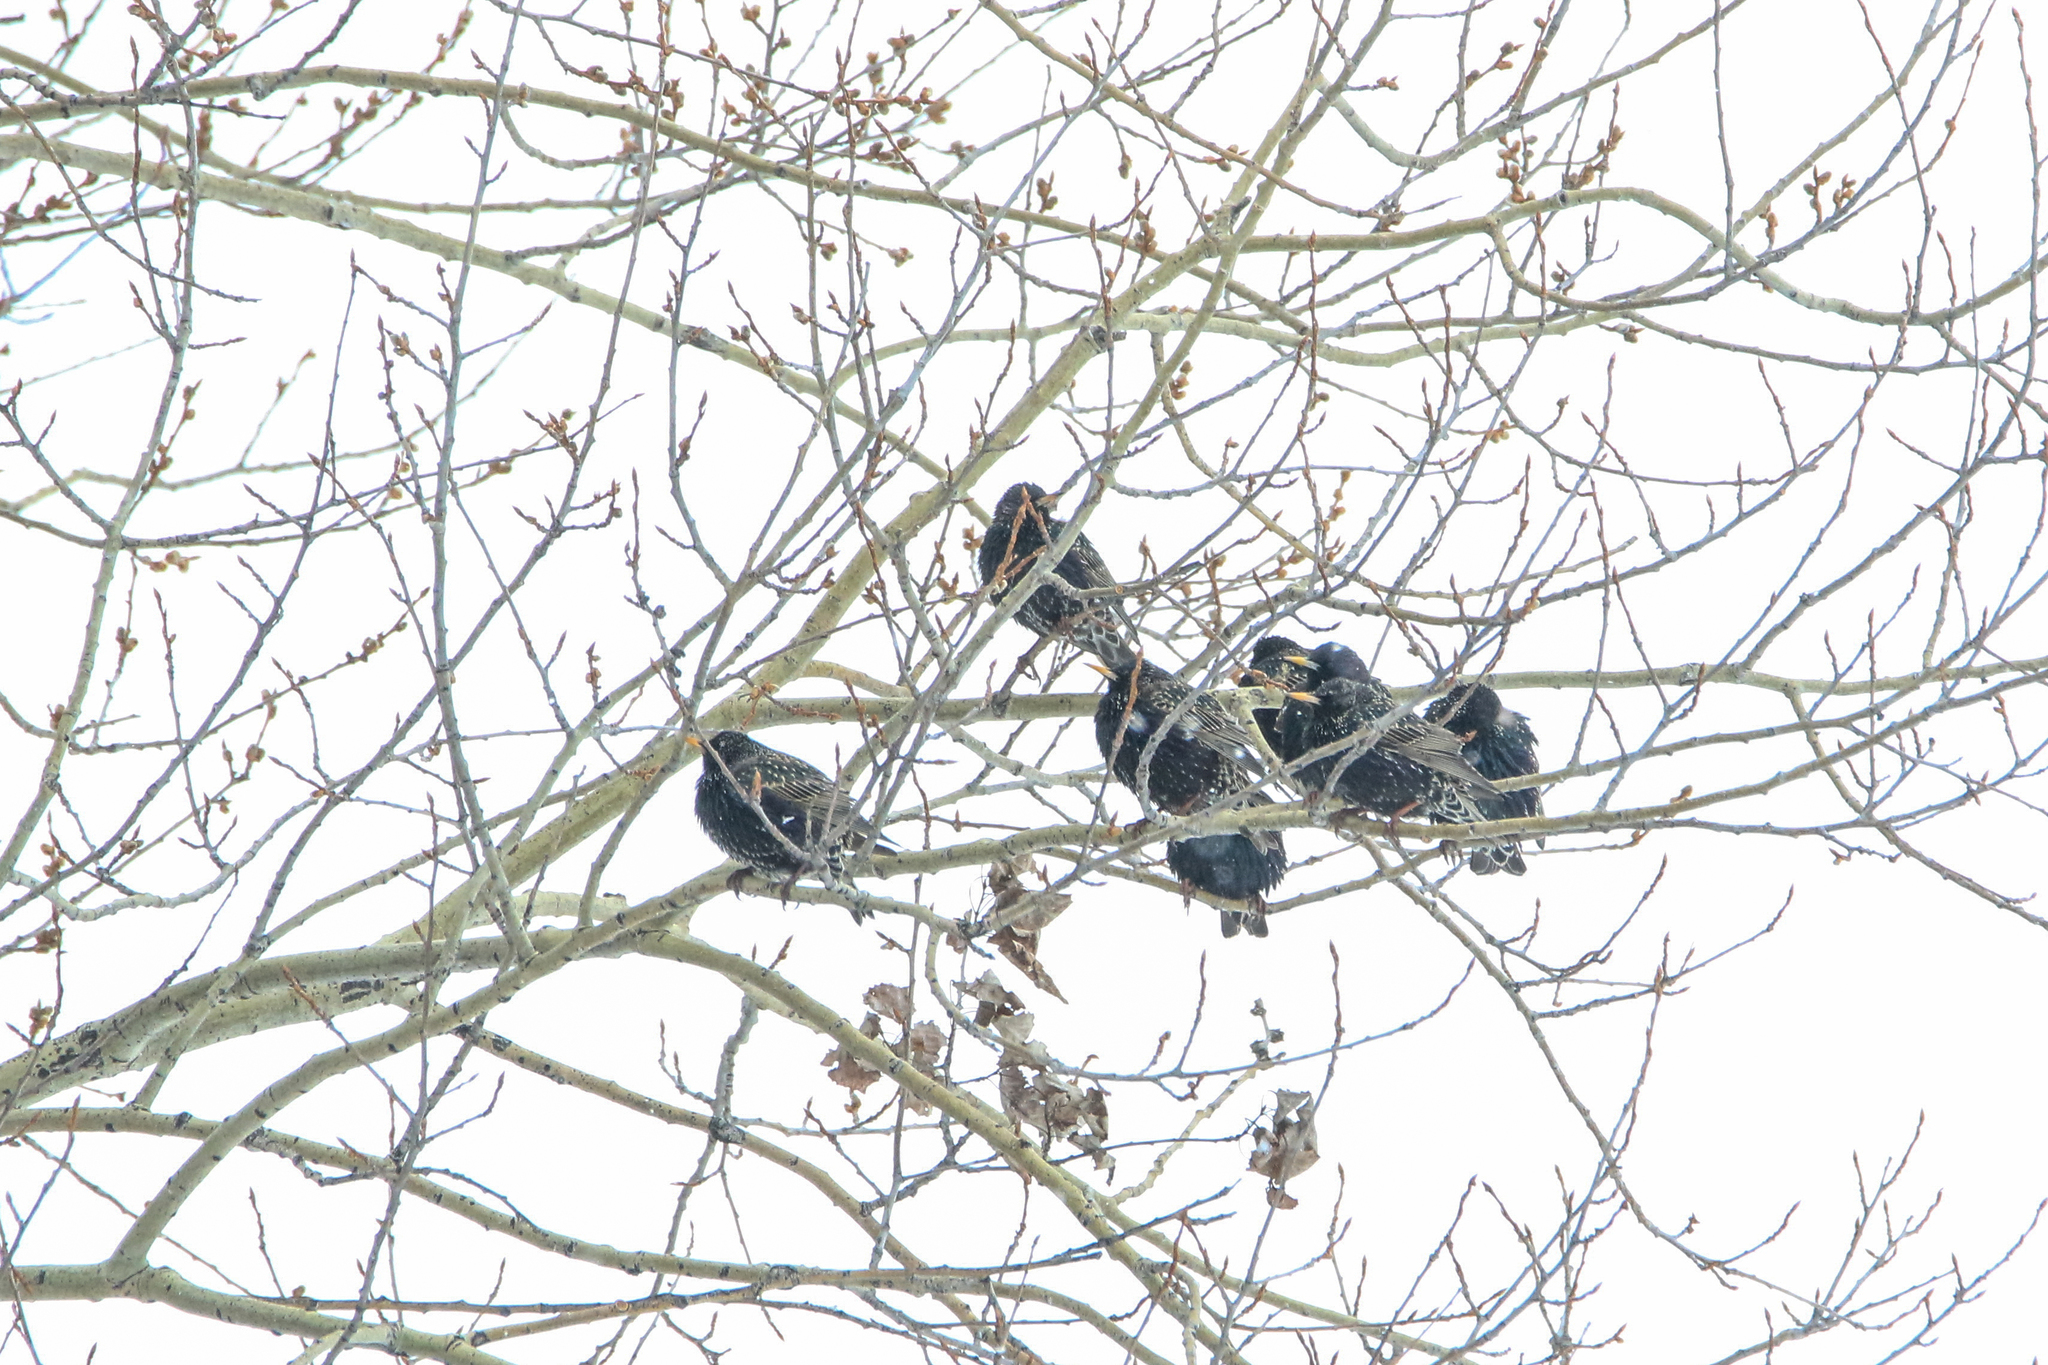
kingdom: Animalia
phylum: Chordata
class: Aves
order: Passeriformes
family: Sturnidae
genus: Sturnus
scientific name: Sturnus vulgaris
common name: Common starling
